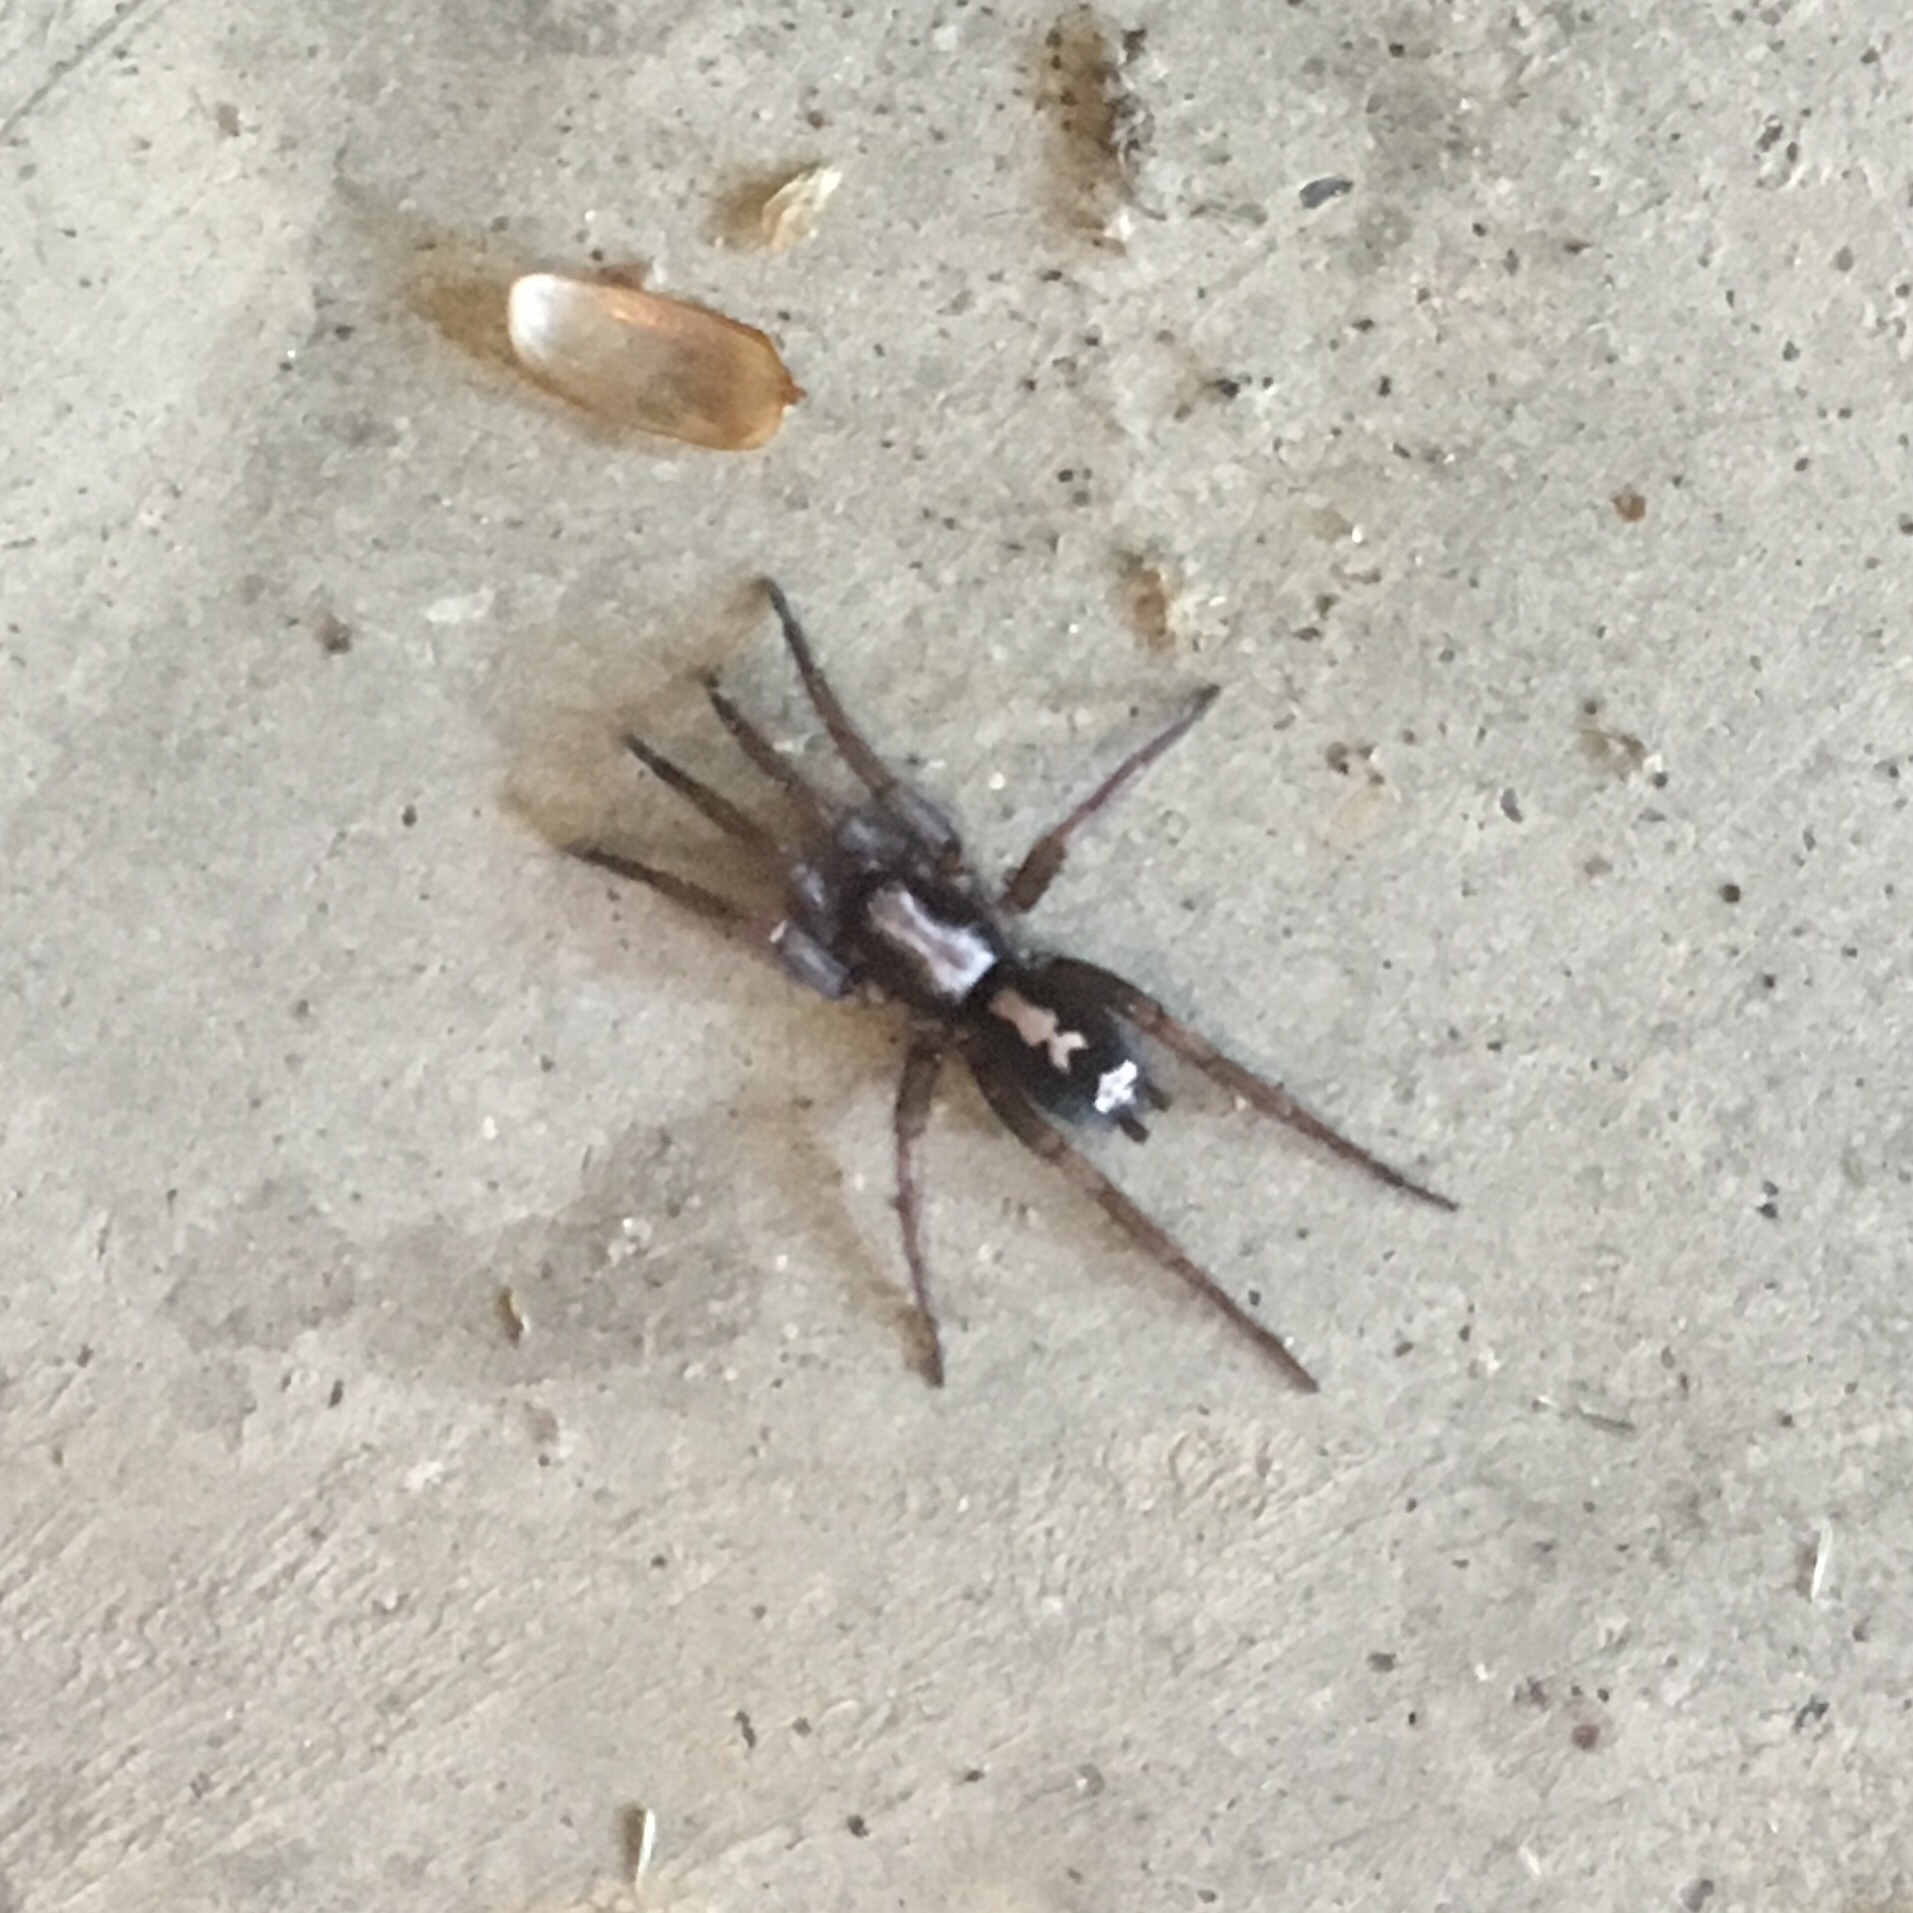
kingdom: Animalia
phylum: Arthropoda
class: Arachnida
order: Araneae
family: Gnaphosidae
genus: Herpyllus
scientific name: Herpyllus ecclesiasticus
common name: Eastern parson spider
